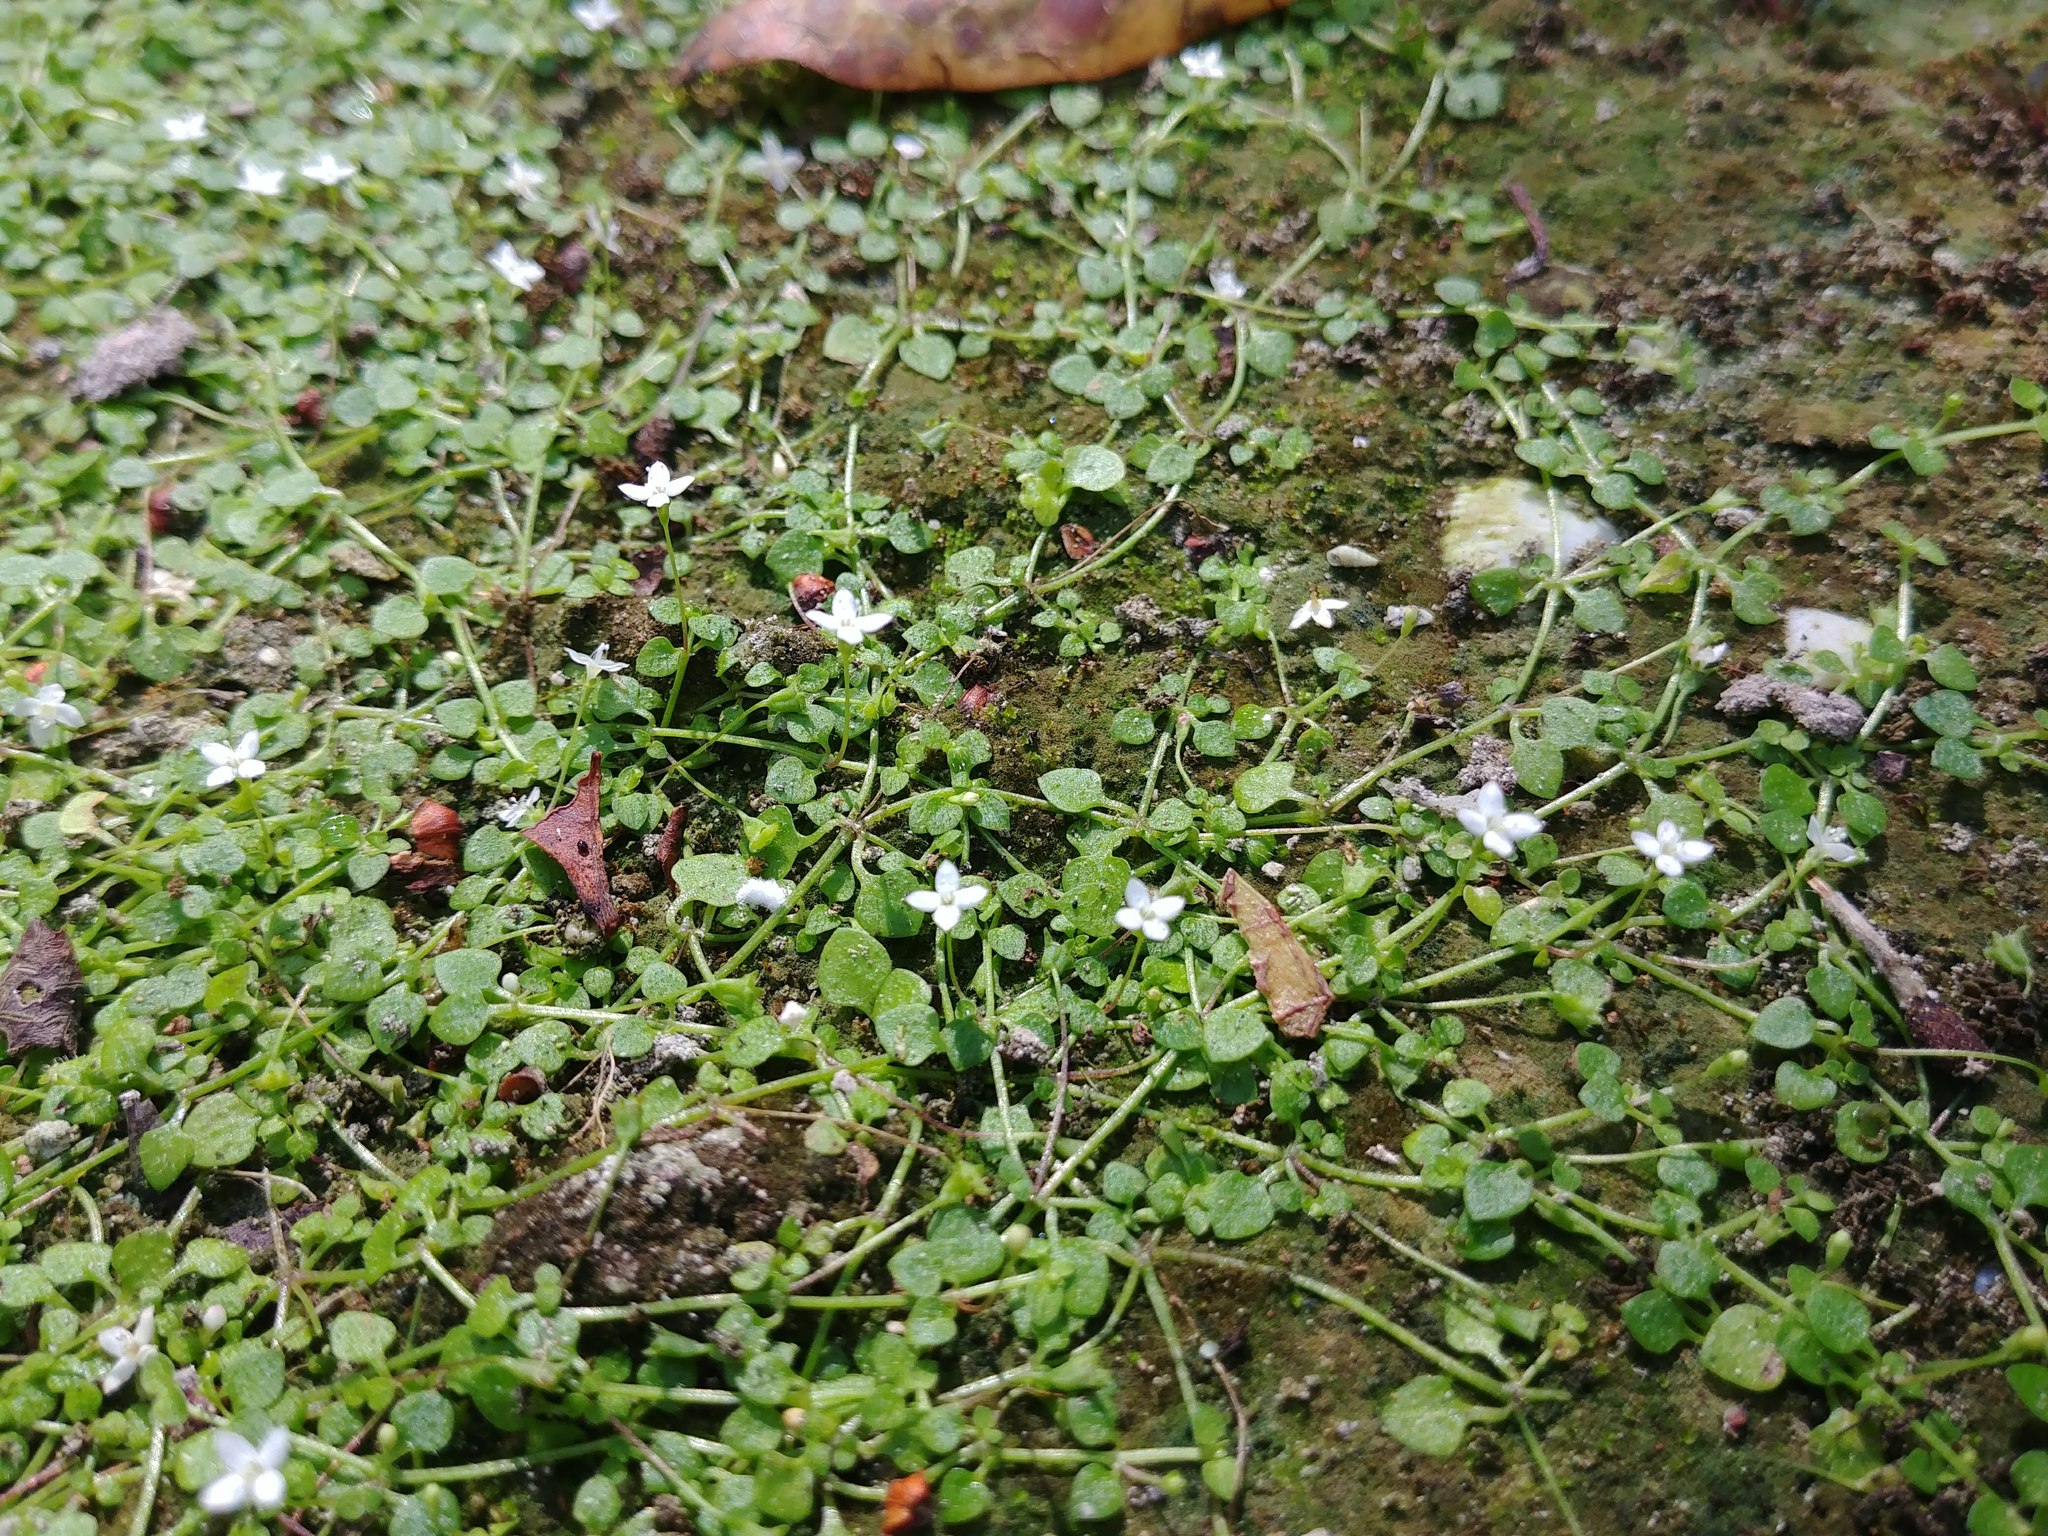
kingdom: Plantae
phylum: Tracheophyta
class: Magnoliopsida
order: Gentianales
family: Rubiaceae
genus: Oldenlandiopsis
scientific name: Oldenlandiopsis callitrichoides
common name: Creeping-bluet
